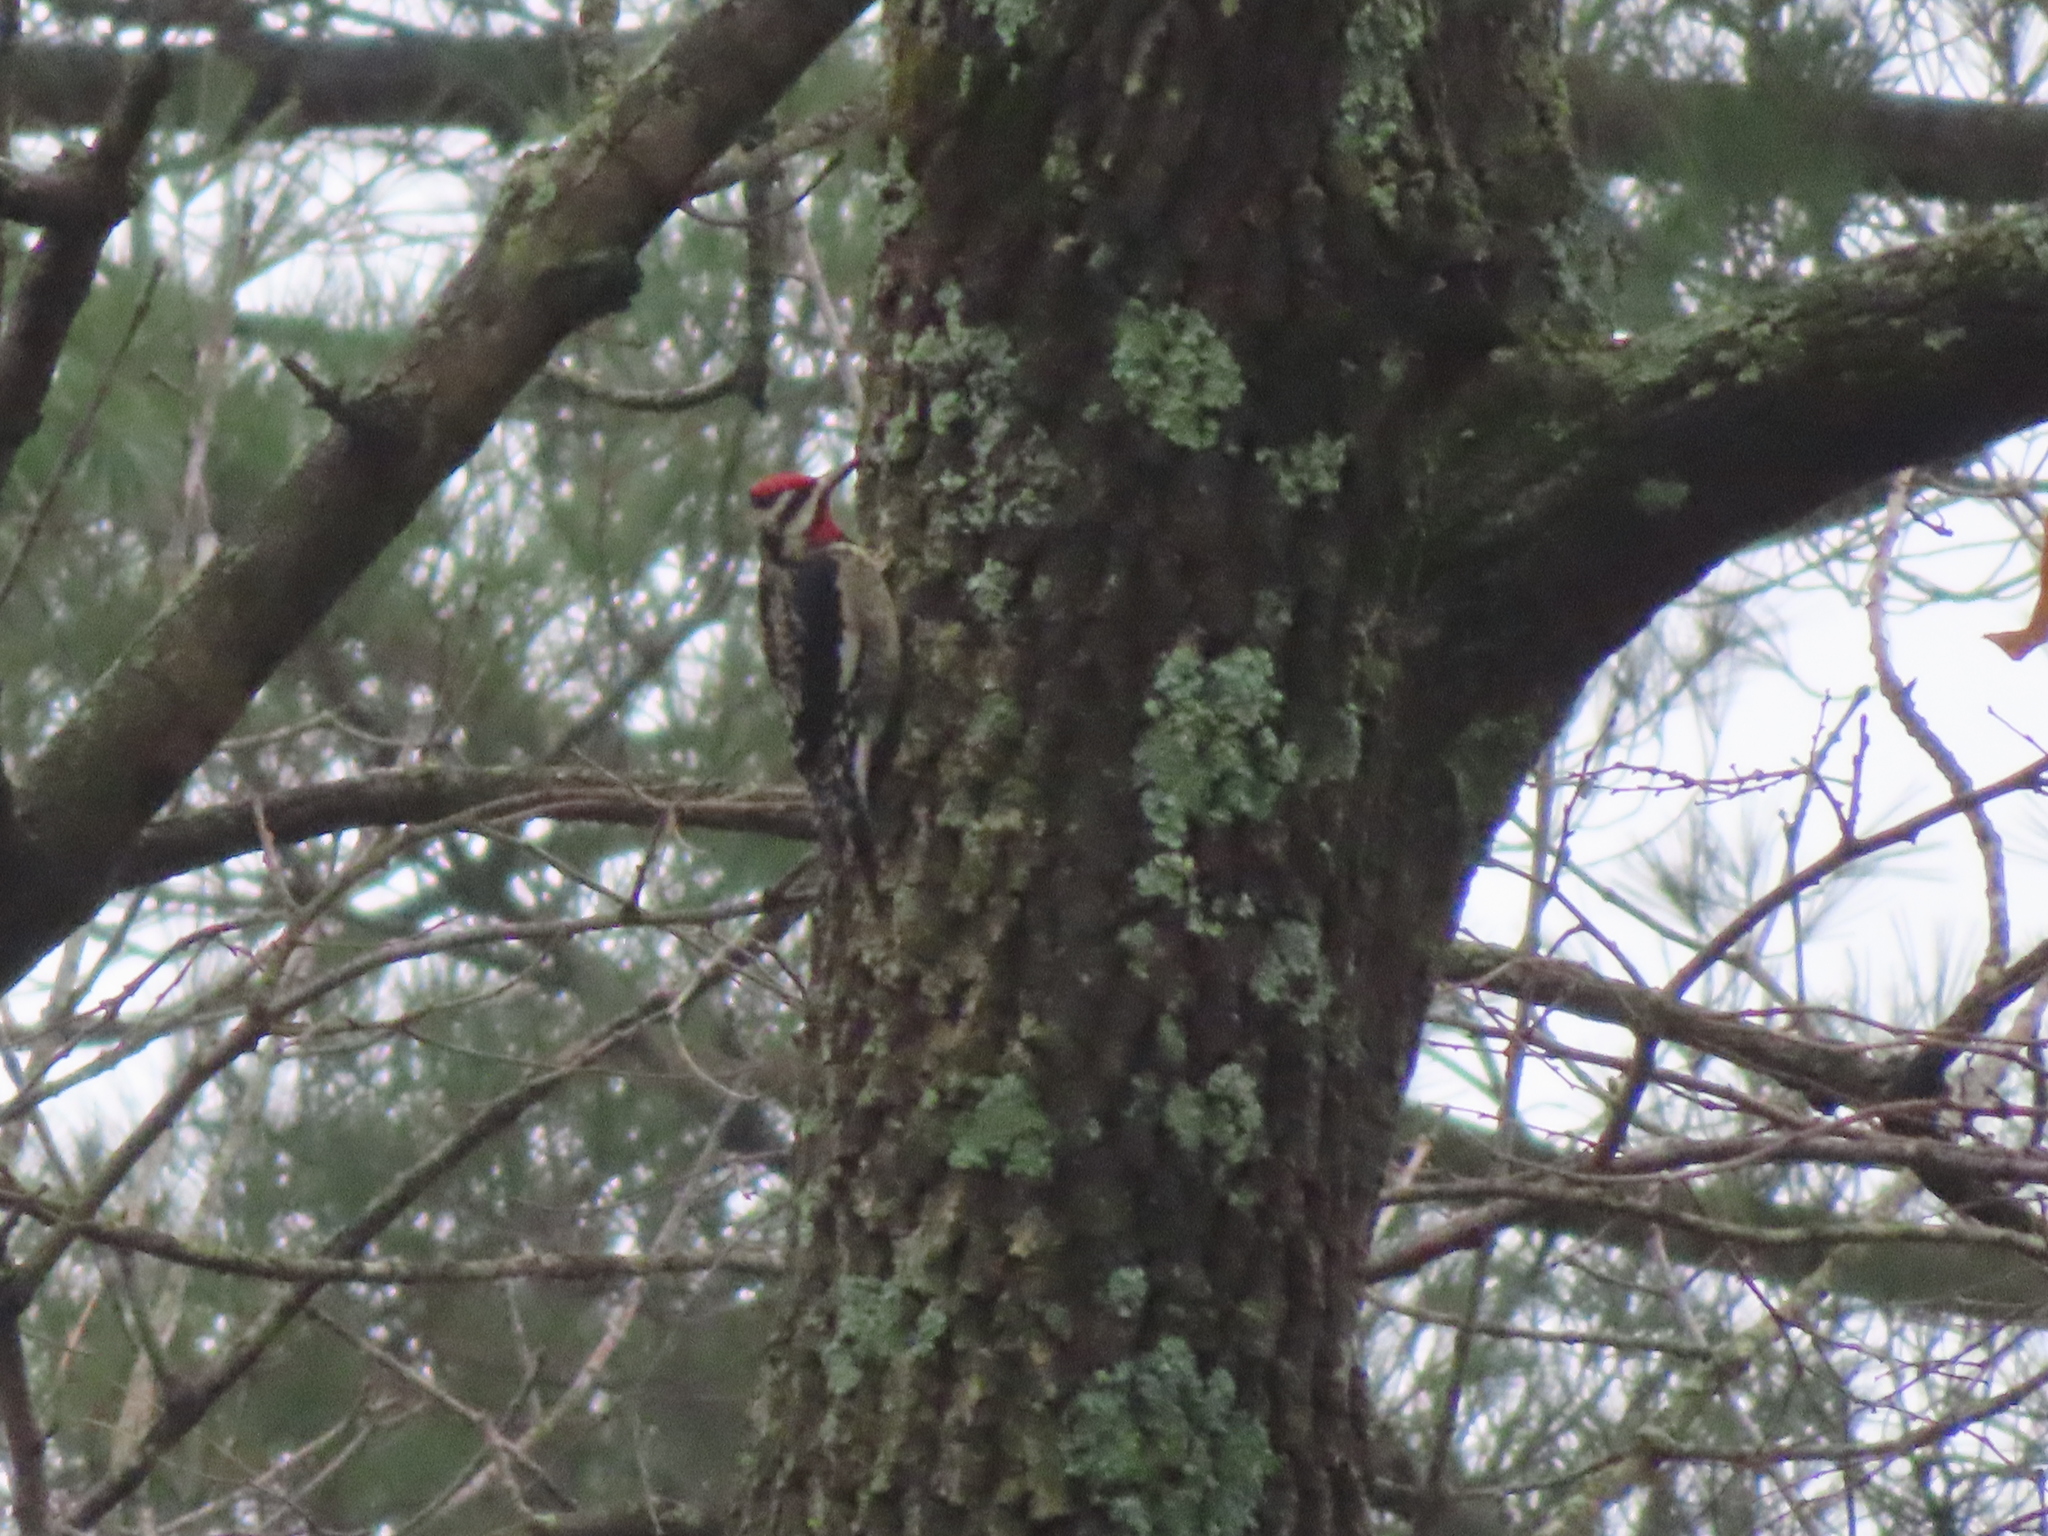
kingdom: Animalia
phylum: Chordata
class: Aves
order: Piciformes
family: Picidae
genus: Sphyrapicus
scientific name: Sphyrapicus varius
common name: Yellow-bellied sapsucker
